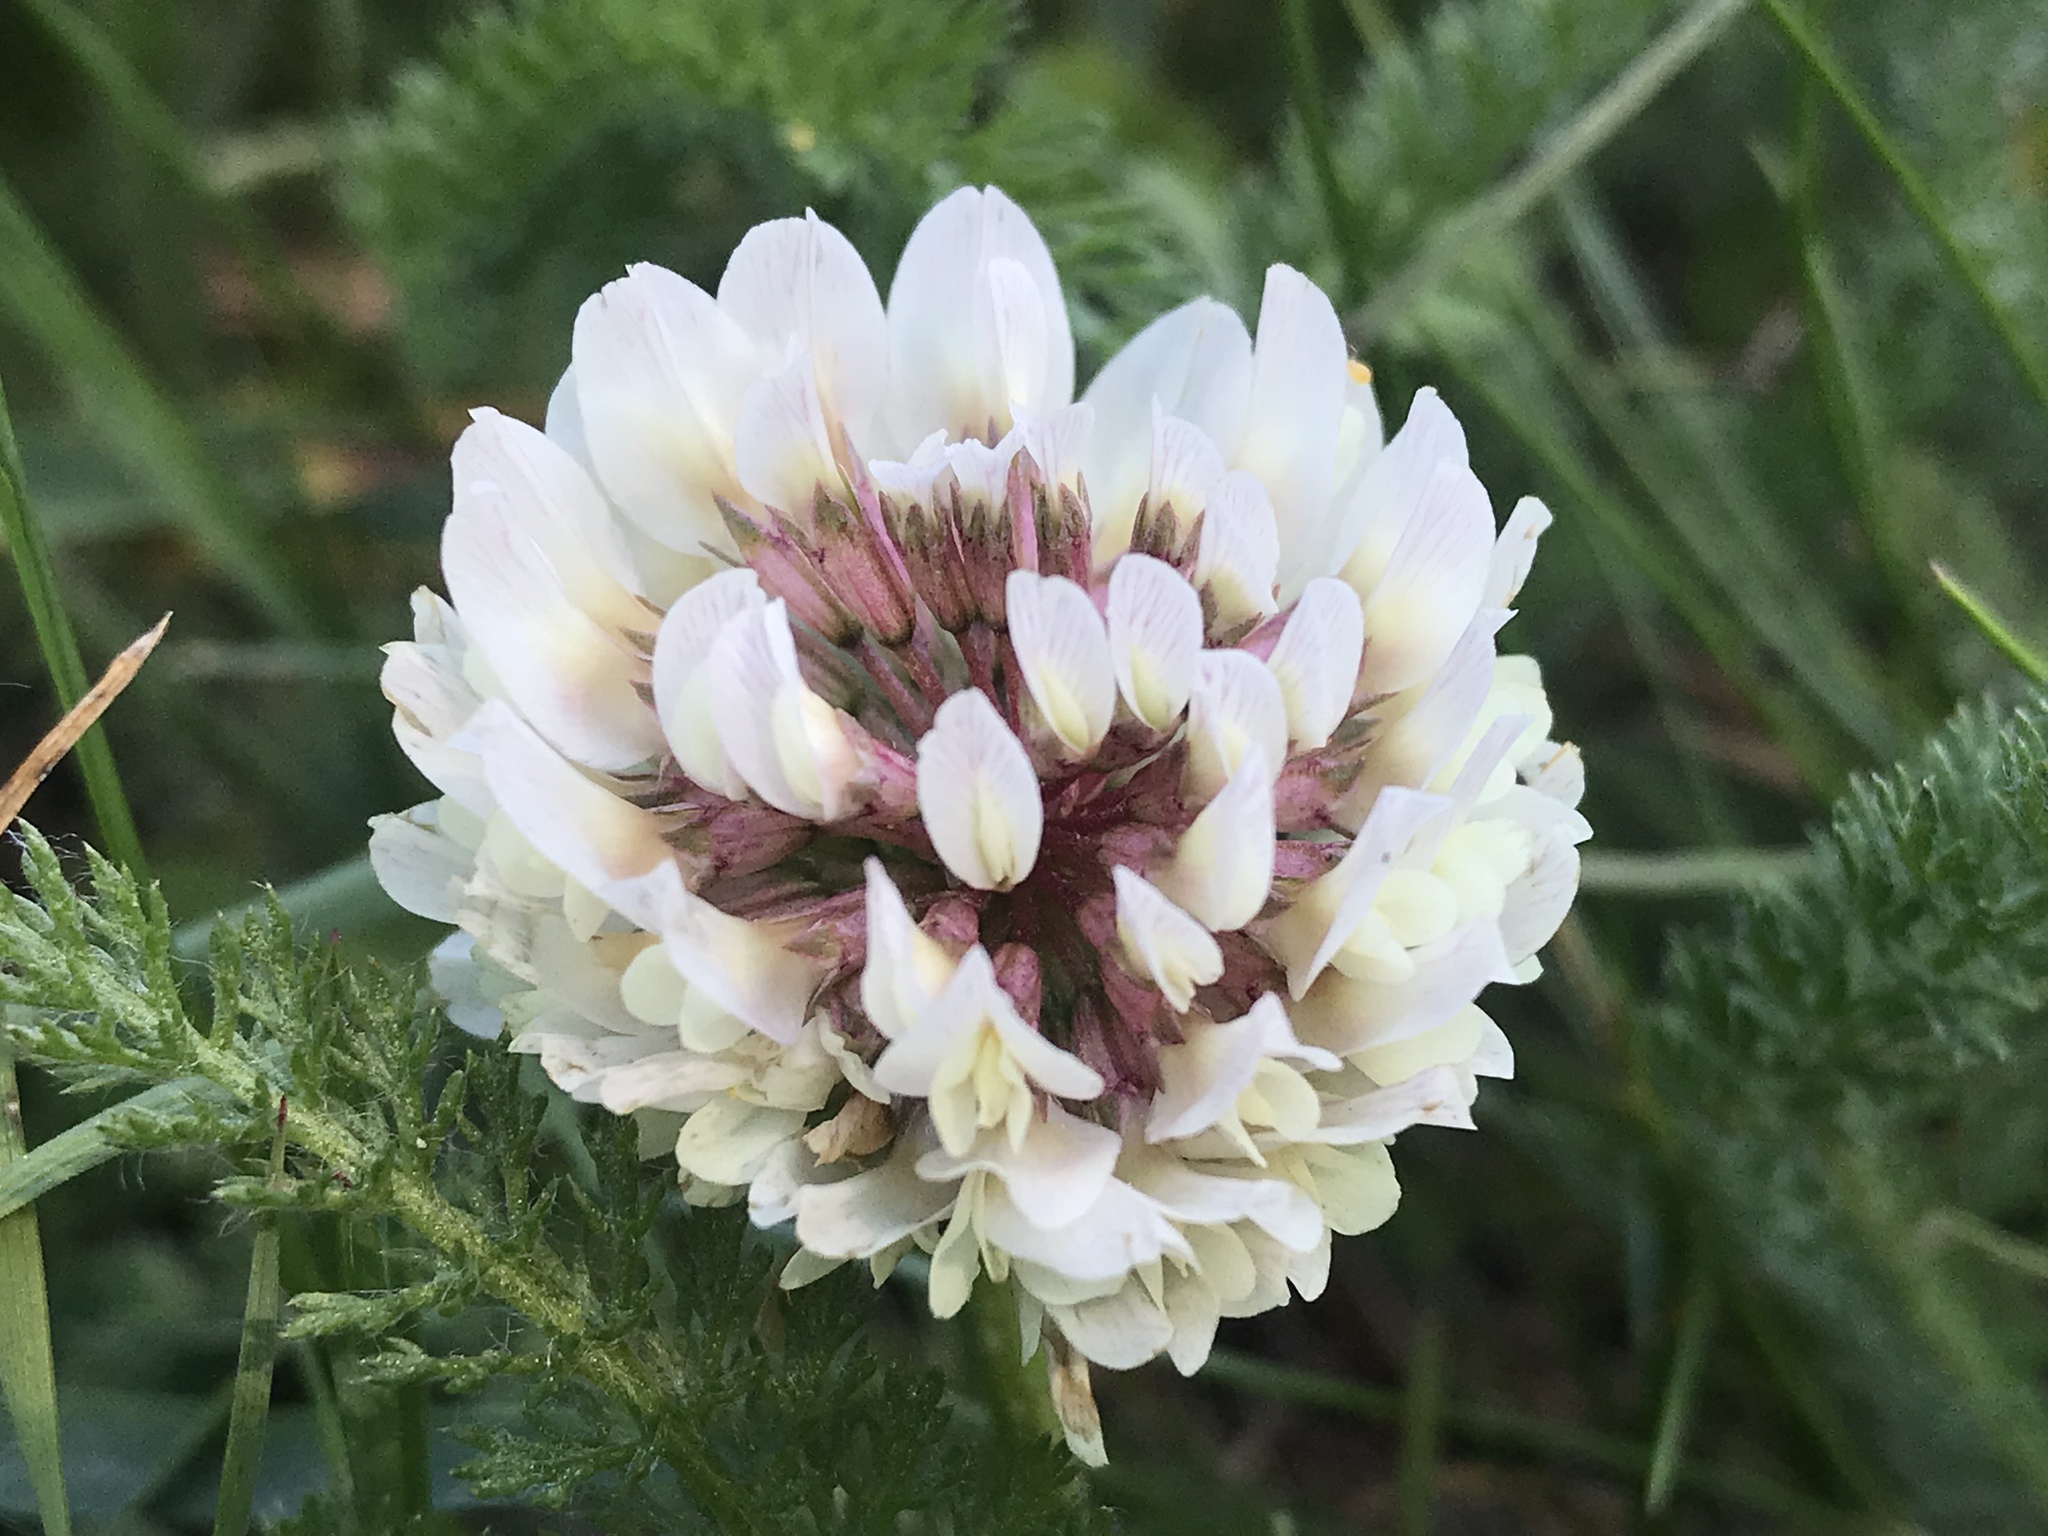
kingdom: Plantae
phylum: Tracheophyta
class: Magnoliopsida
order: Fabales
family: Fabaceae
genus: Trifolium
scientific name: Trifolium repens
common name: White clover
